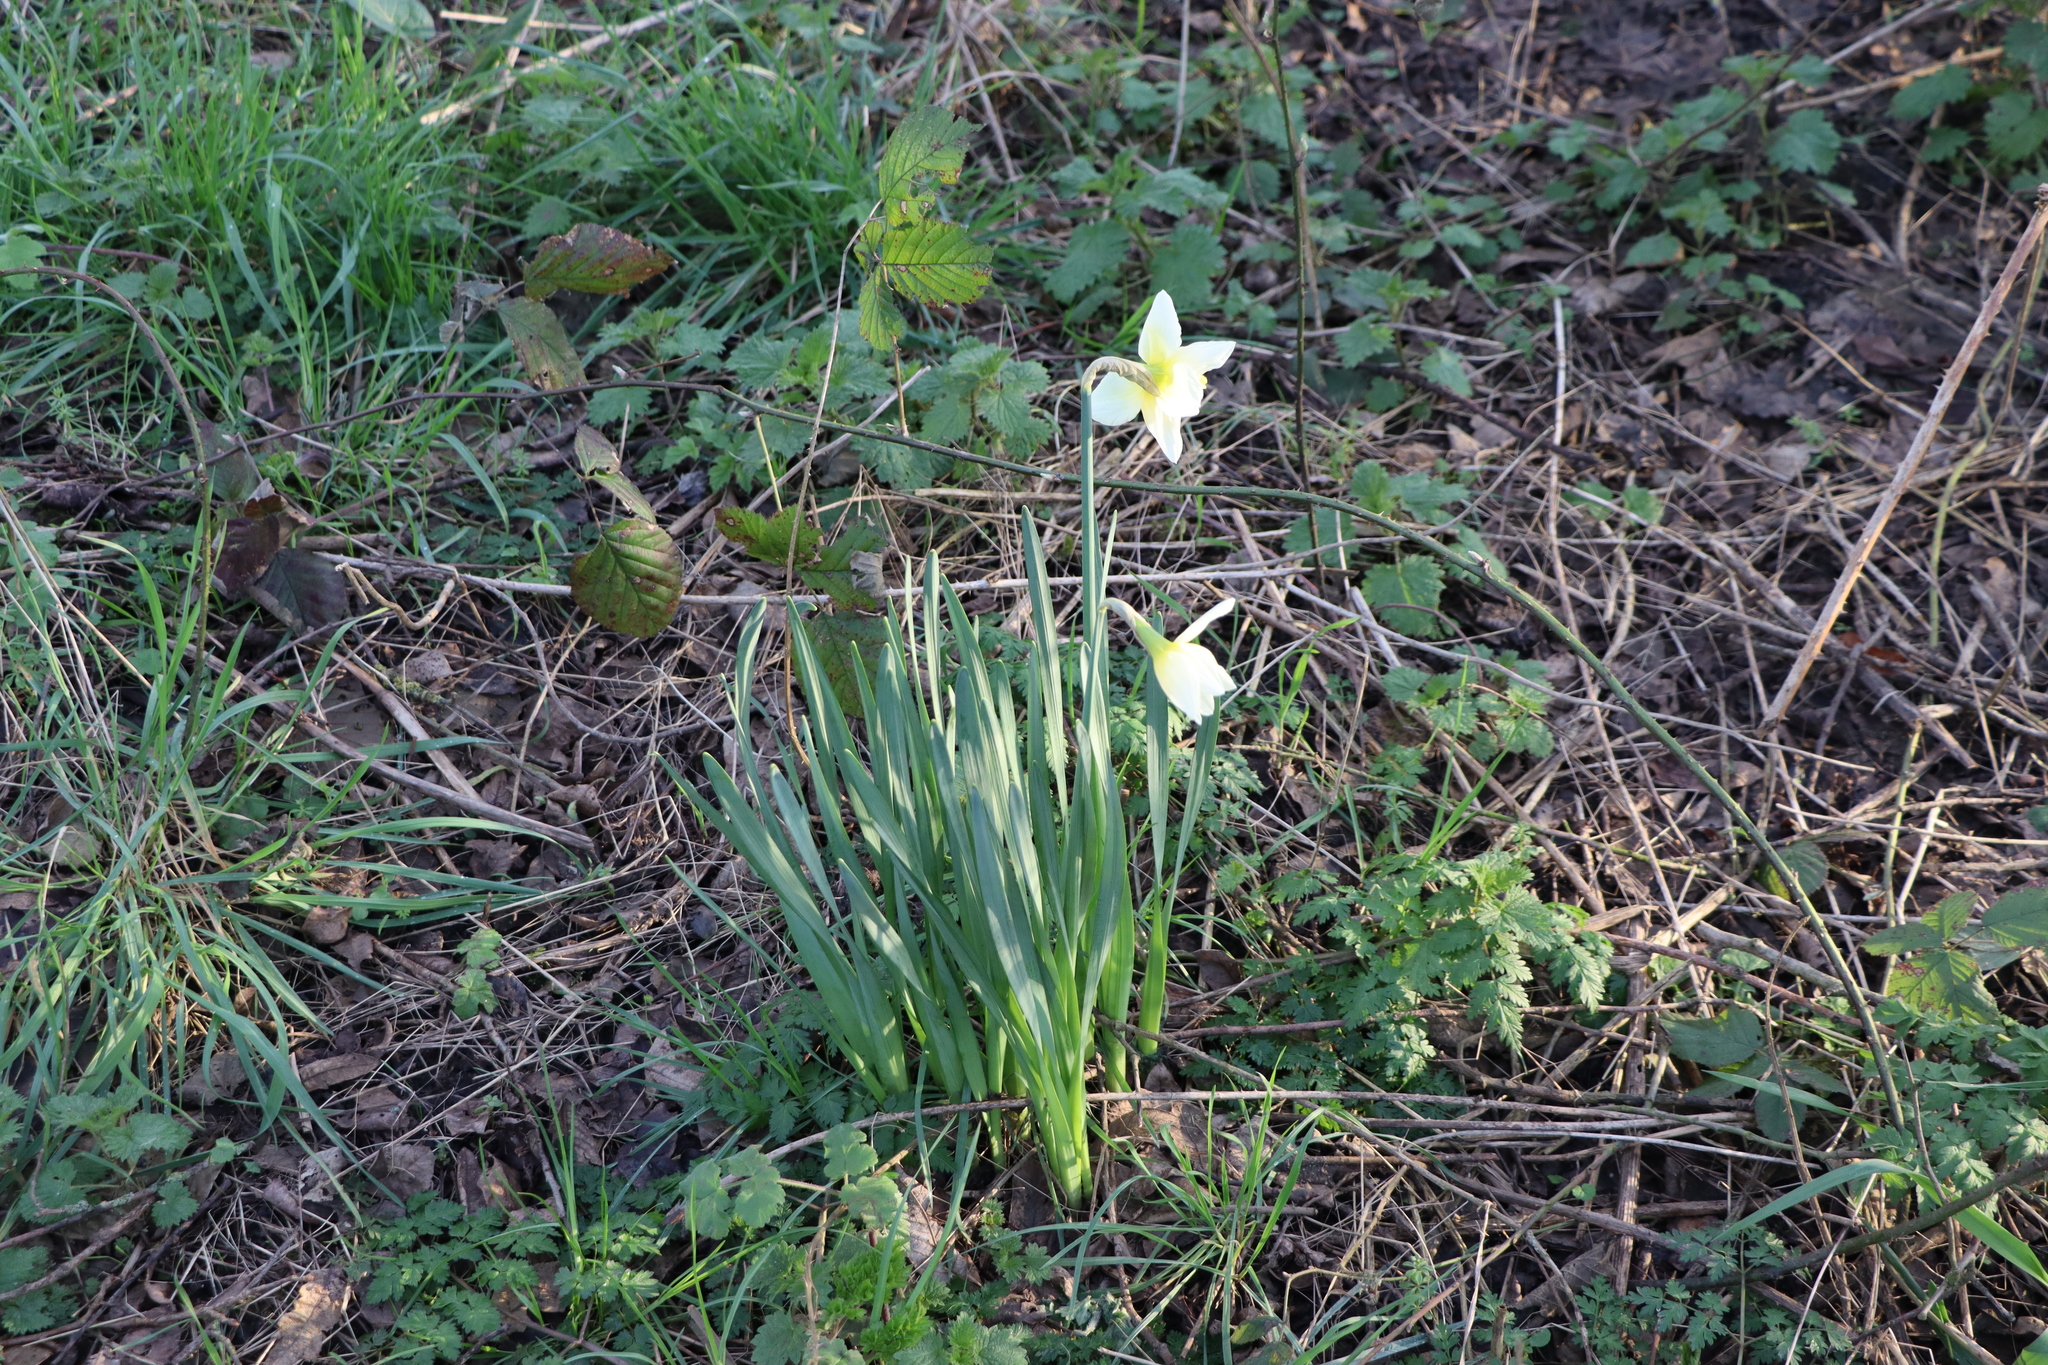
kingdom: Plantae
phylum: Tracheophyta
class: Liliopsida
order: Asparagales
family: Amaryllidaceae
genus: Narcissus
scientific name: Narcissus
